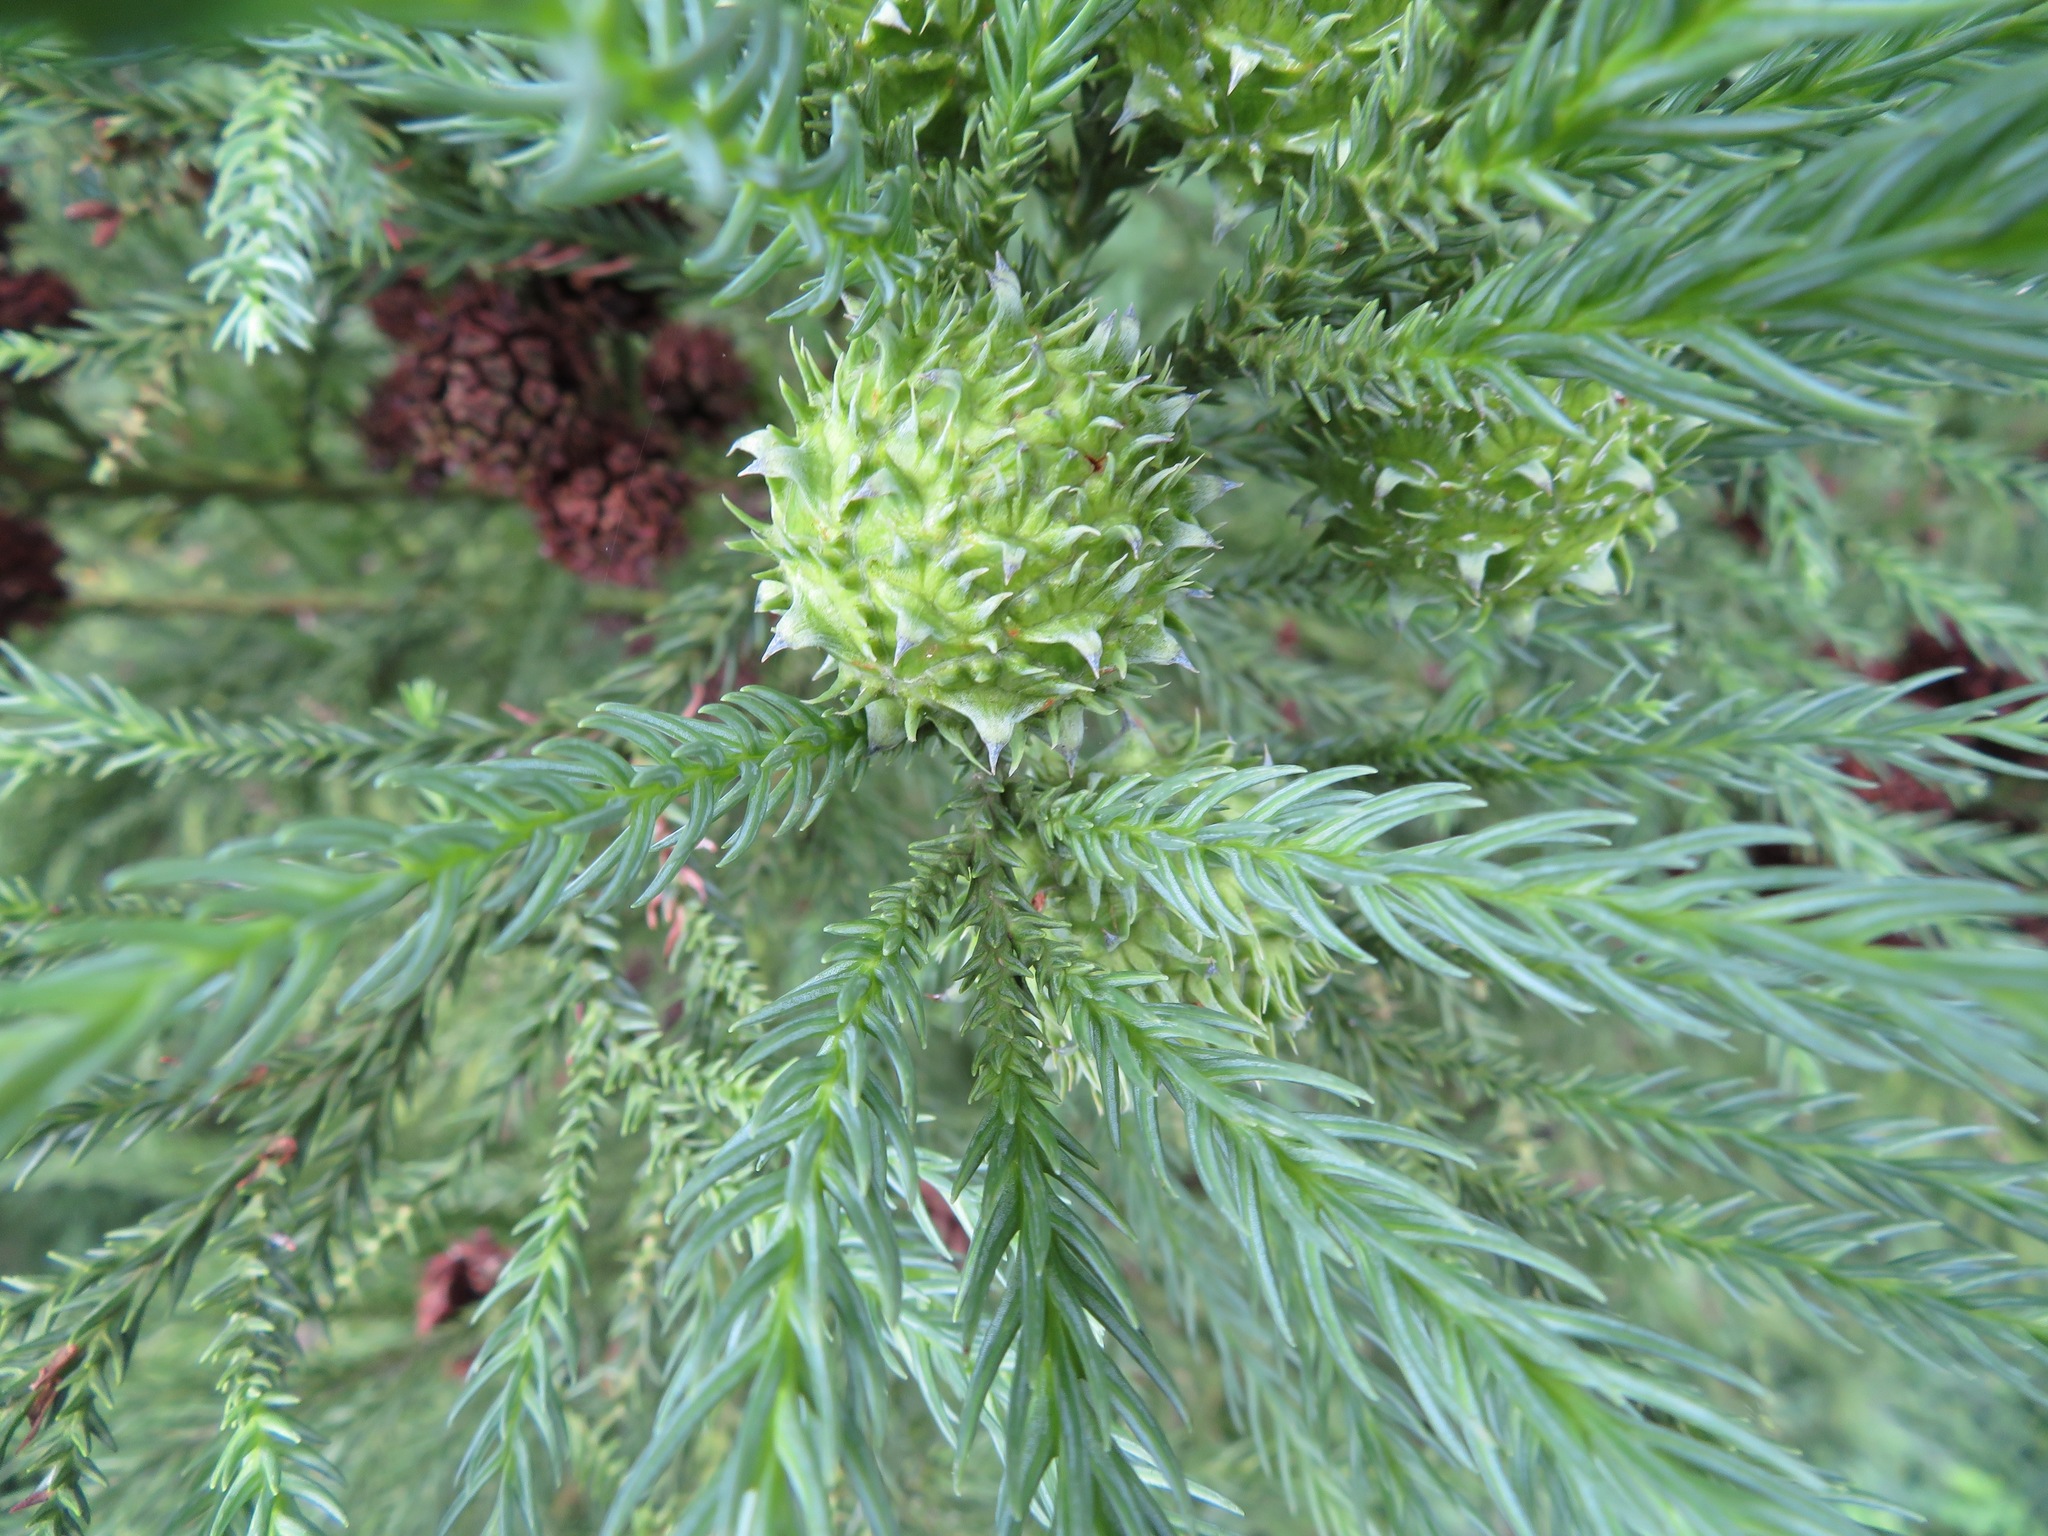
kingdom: Plantae
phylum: Tracheophyta
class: Pinopsida
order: Pinales
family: Cupressaceae
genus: Cryptomeria
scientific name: Cryptomeria japonica
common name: Japanese cedar
